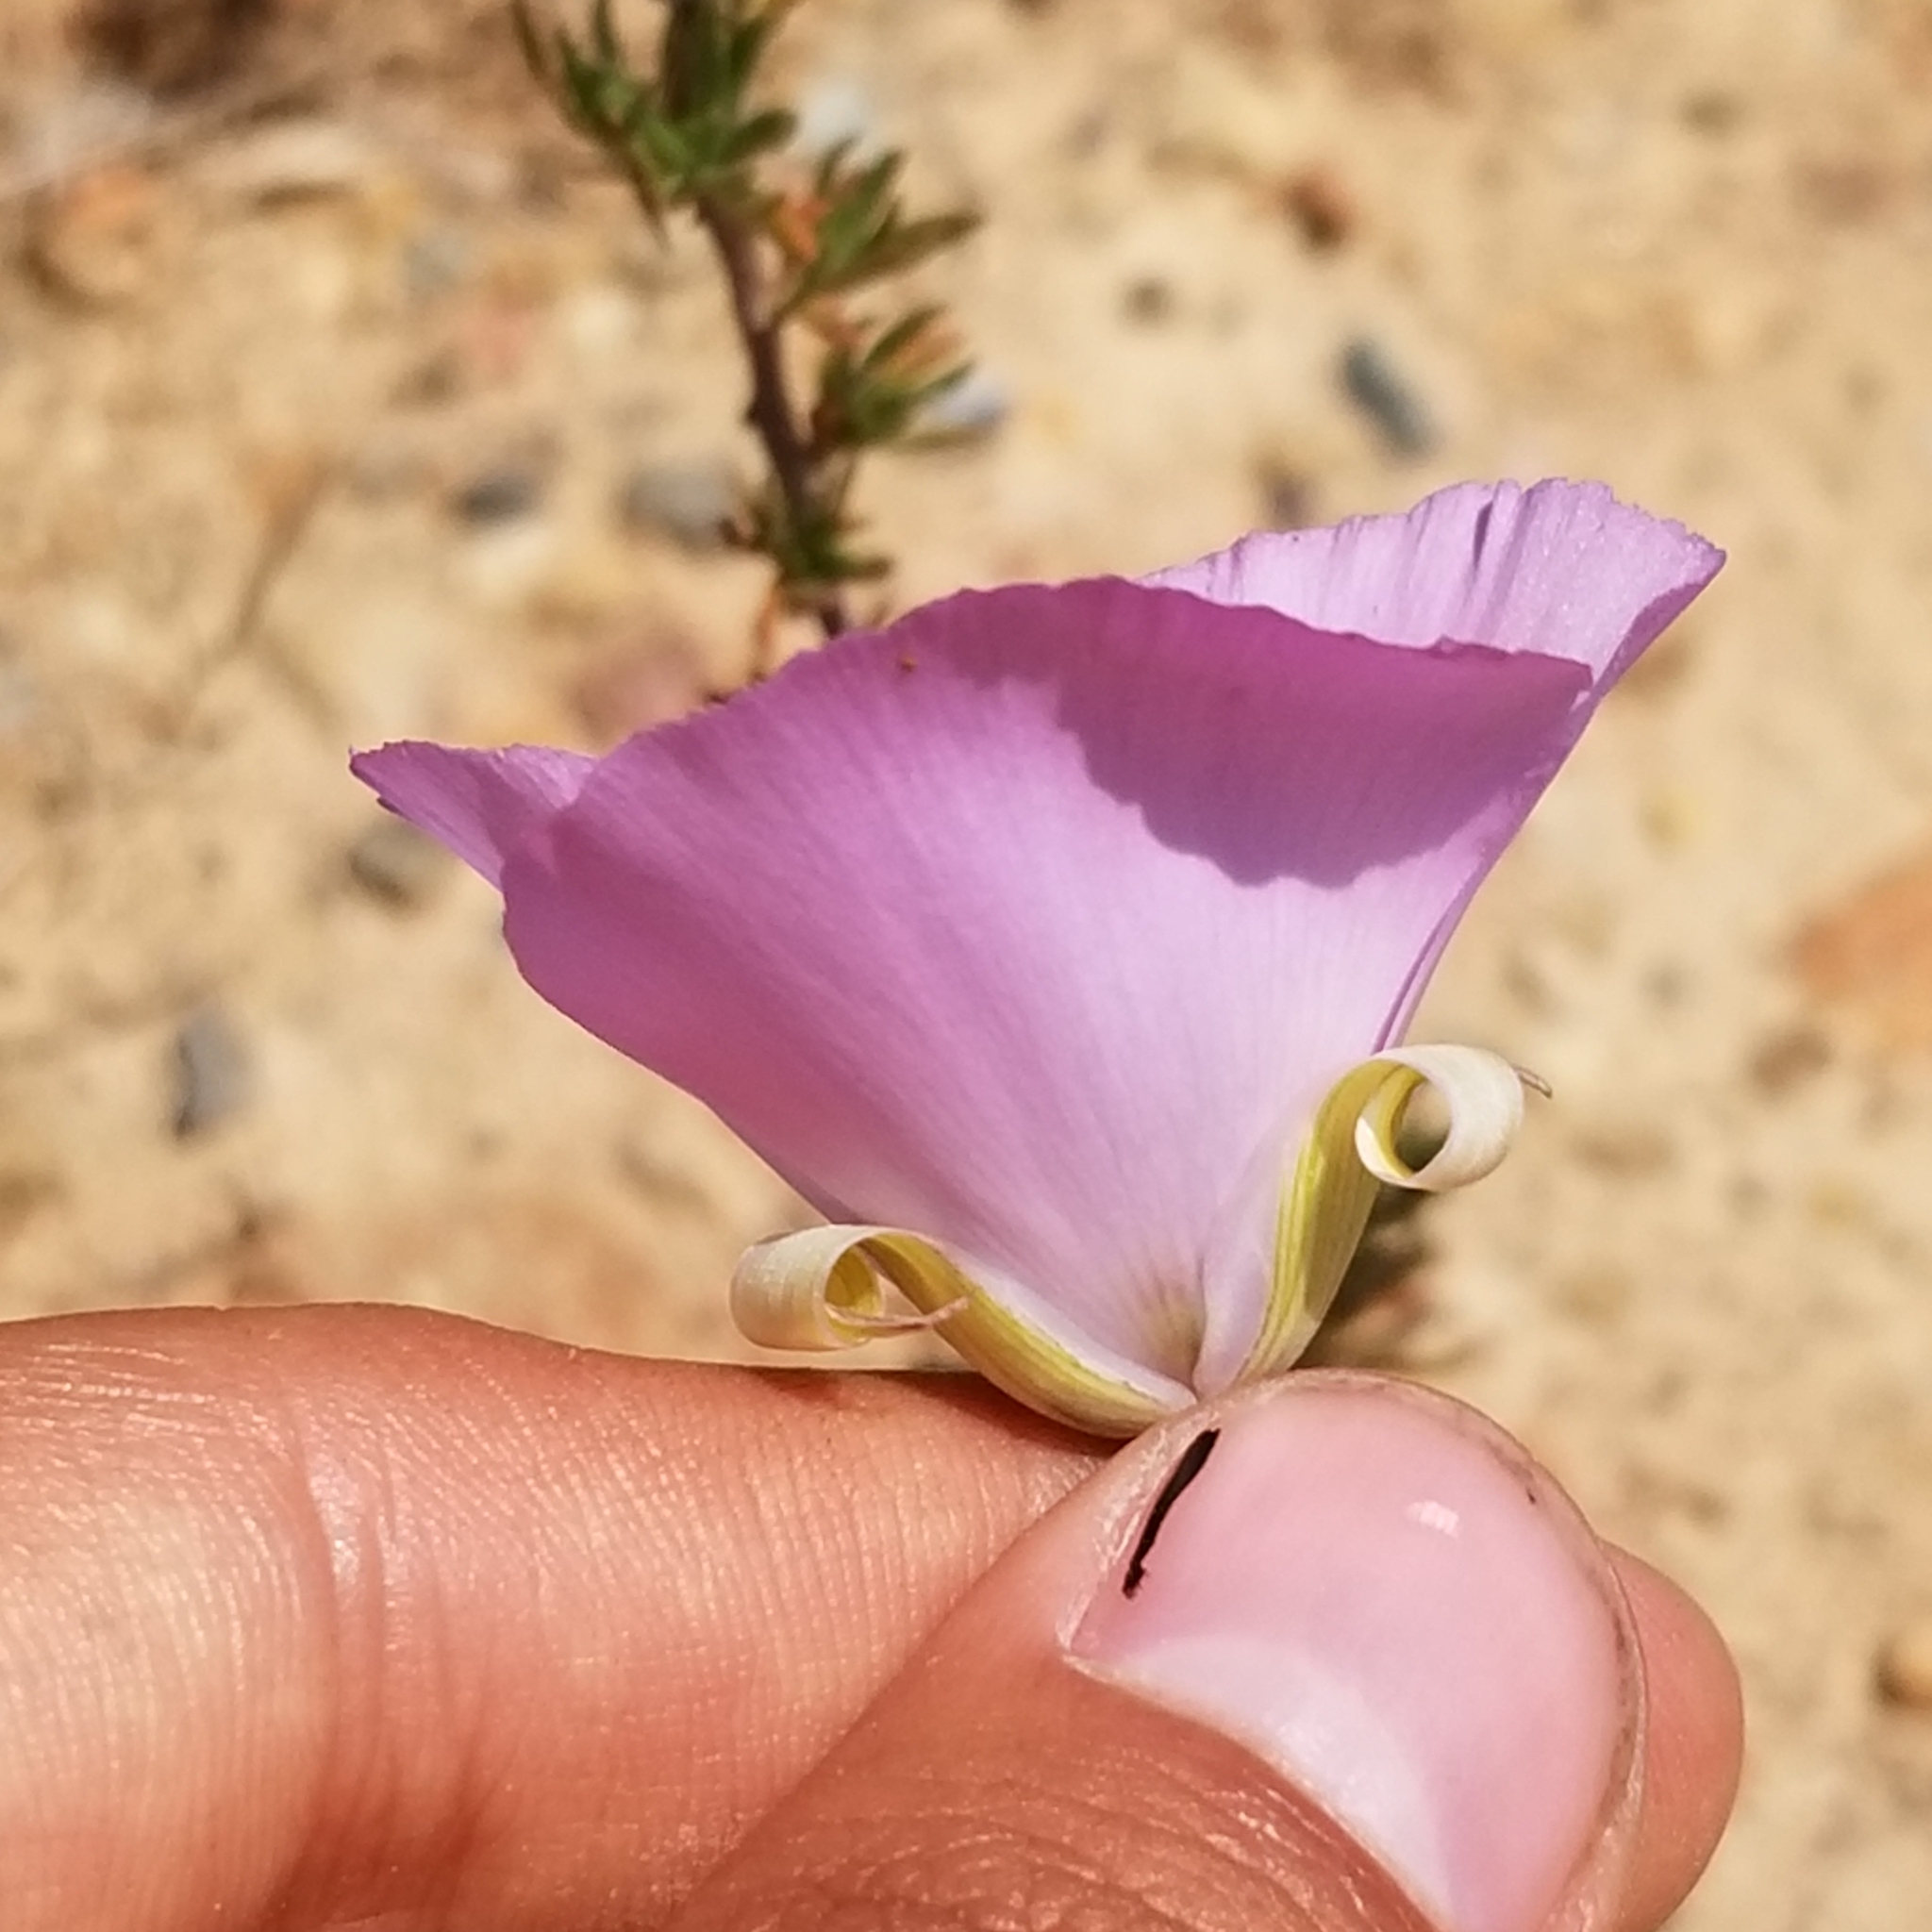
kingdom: Plantae
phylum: Tracheophyta
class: Liliopsida
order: Liliales
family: Liliaceae
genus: Calochortus
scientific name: Calochortus splendens
